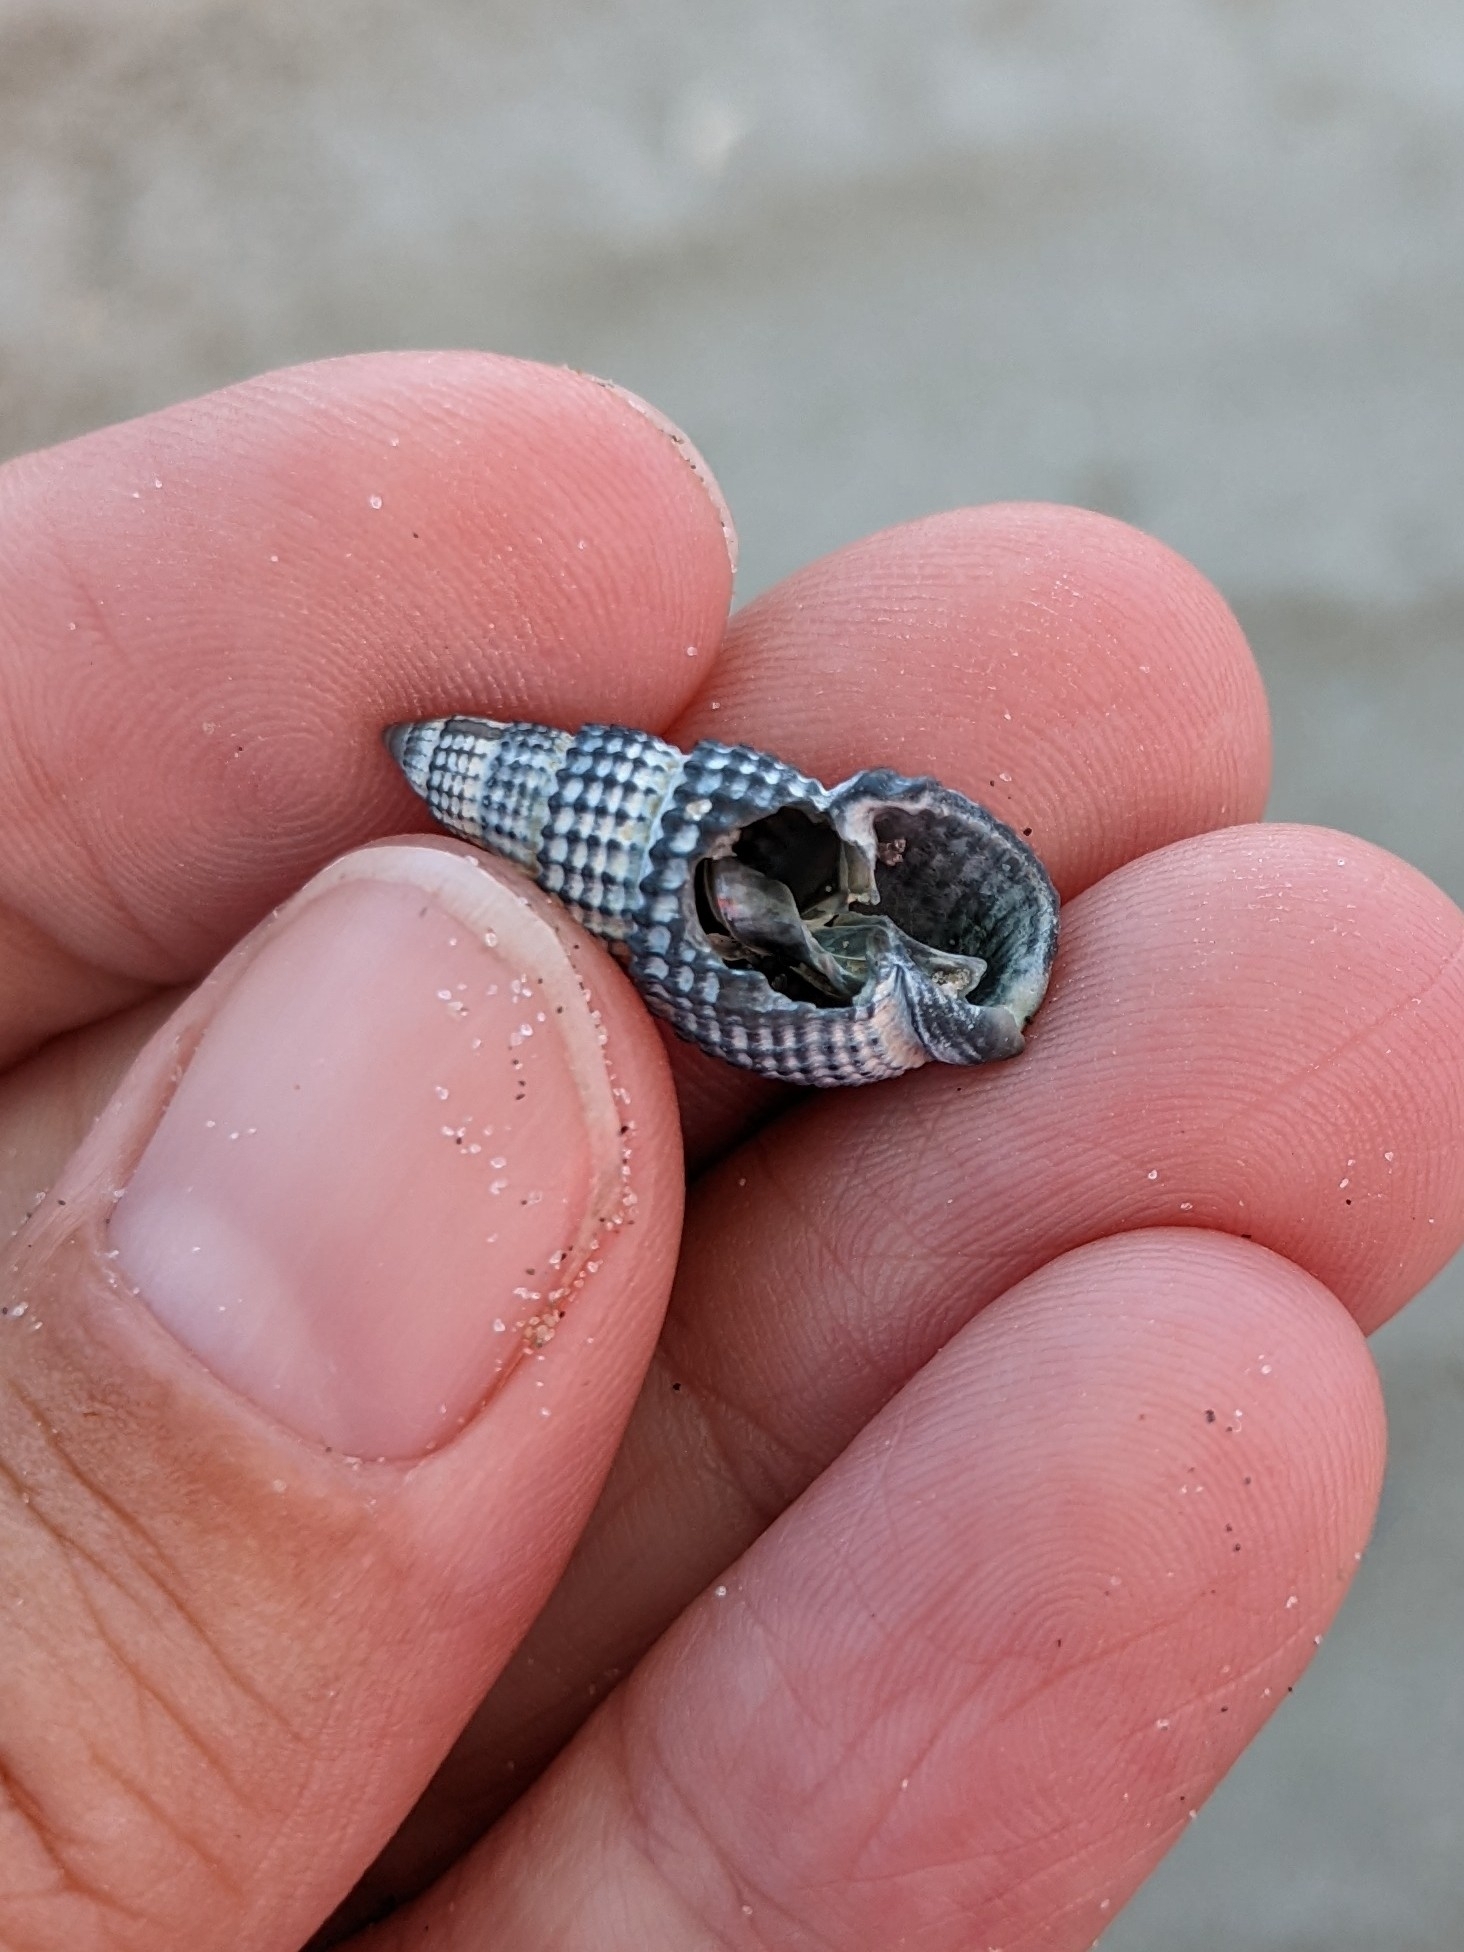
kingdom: Animalia
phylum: Mollusca
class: Gastropoda
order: Neogastropoda
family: Nassariidae
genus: Ilyanassa
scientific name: Ilyanassa trivittata
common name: Three-line mudsnail
